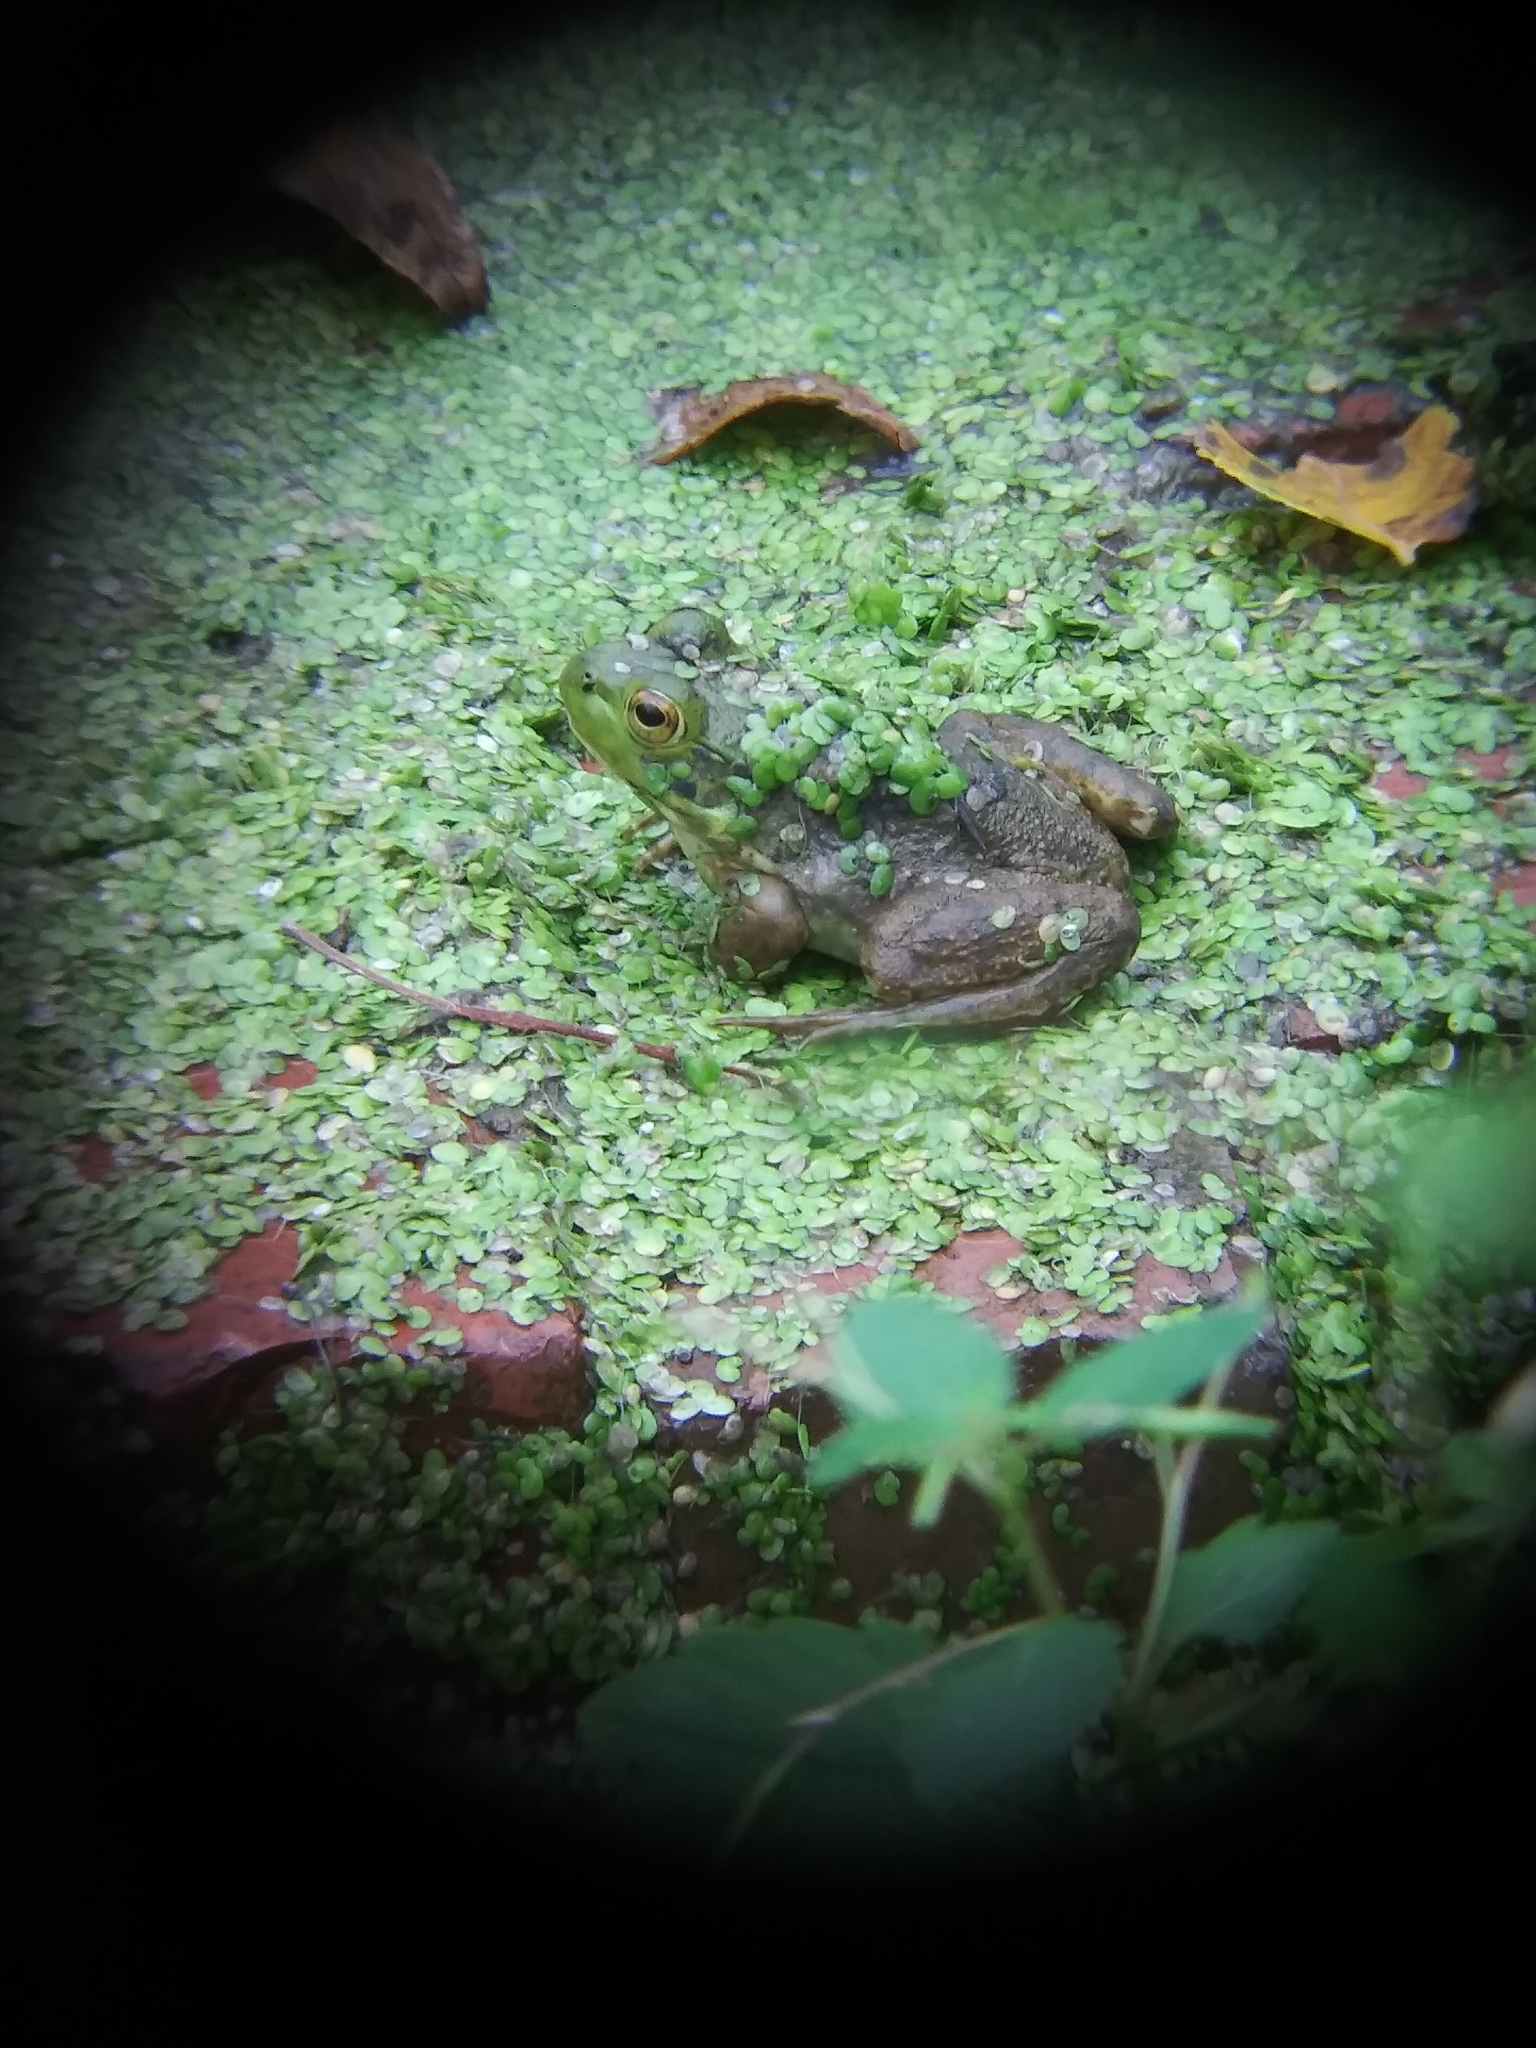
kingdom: Animalia
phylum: Chordata
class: Amphibia
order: Anura
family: Ranidae
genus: Lithobates
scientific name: Lithobates catesbeianus
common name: American bullfrog
